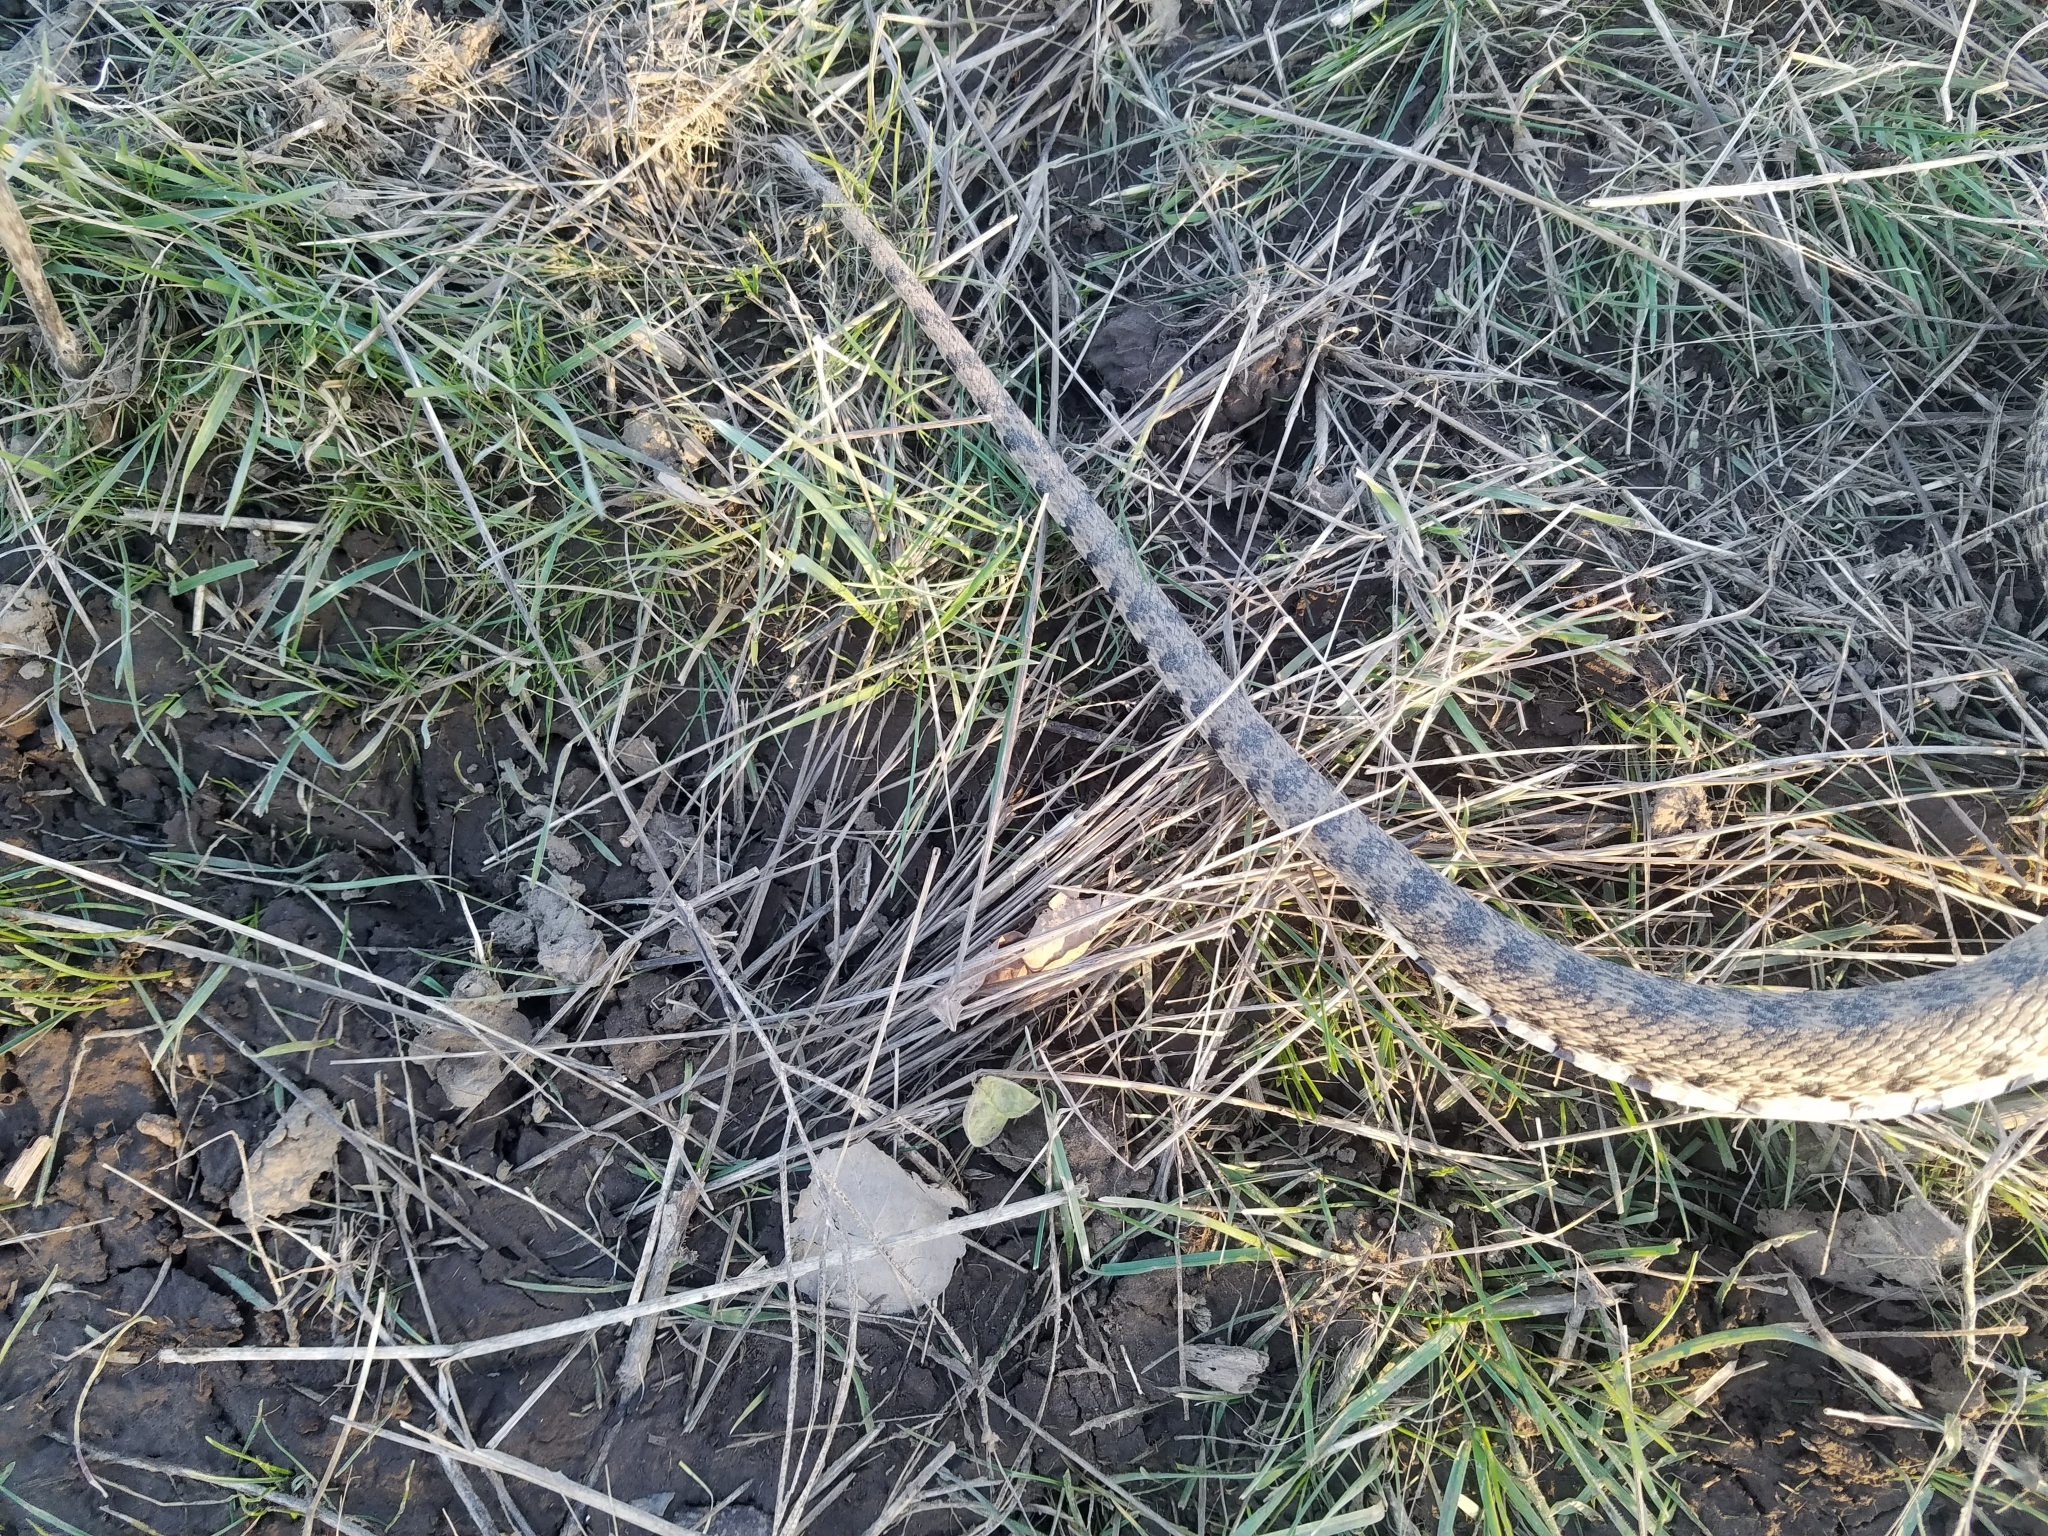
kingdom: Animalia
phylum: Chordata
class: Squamata
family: Colubridae
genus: Pituophis
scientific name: Pituophis catenifer
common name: Gopher snake
